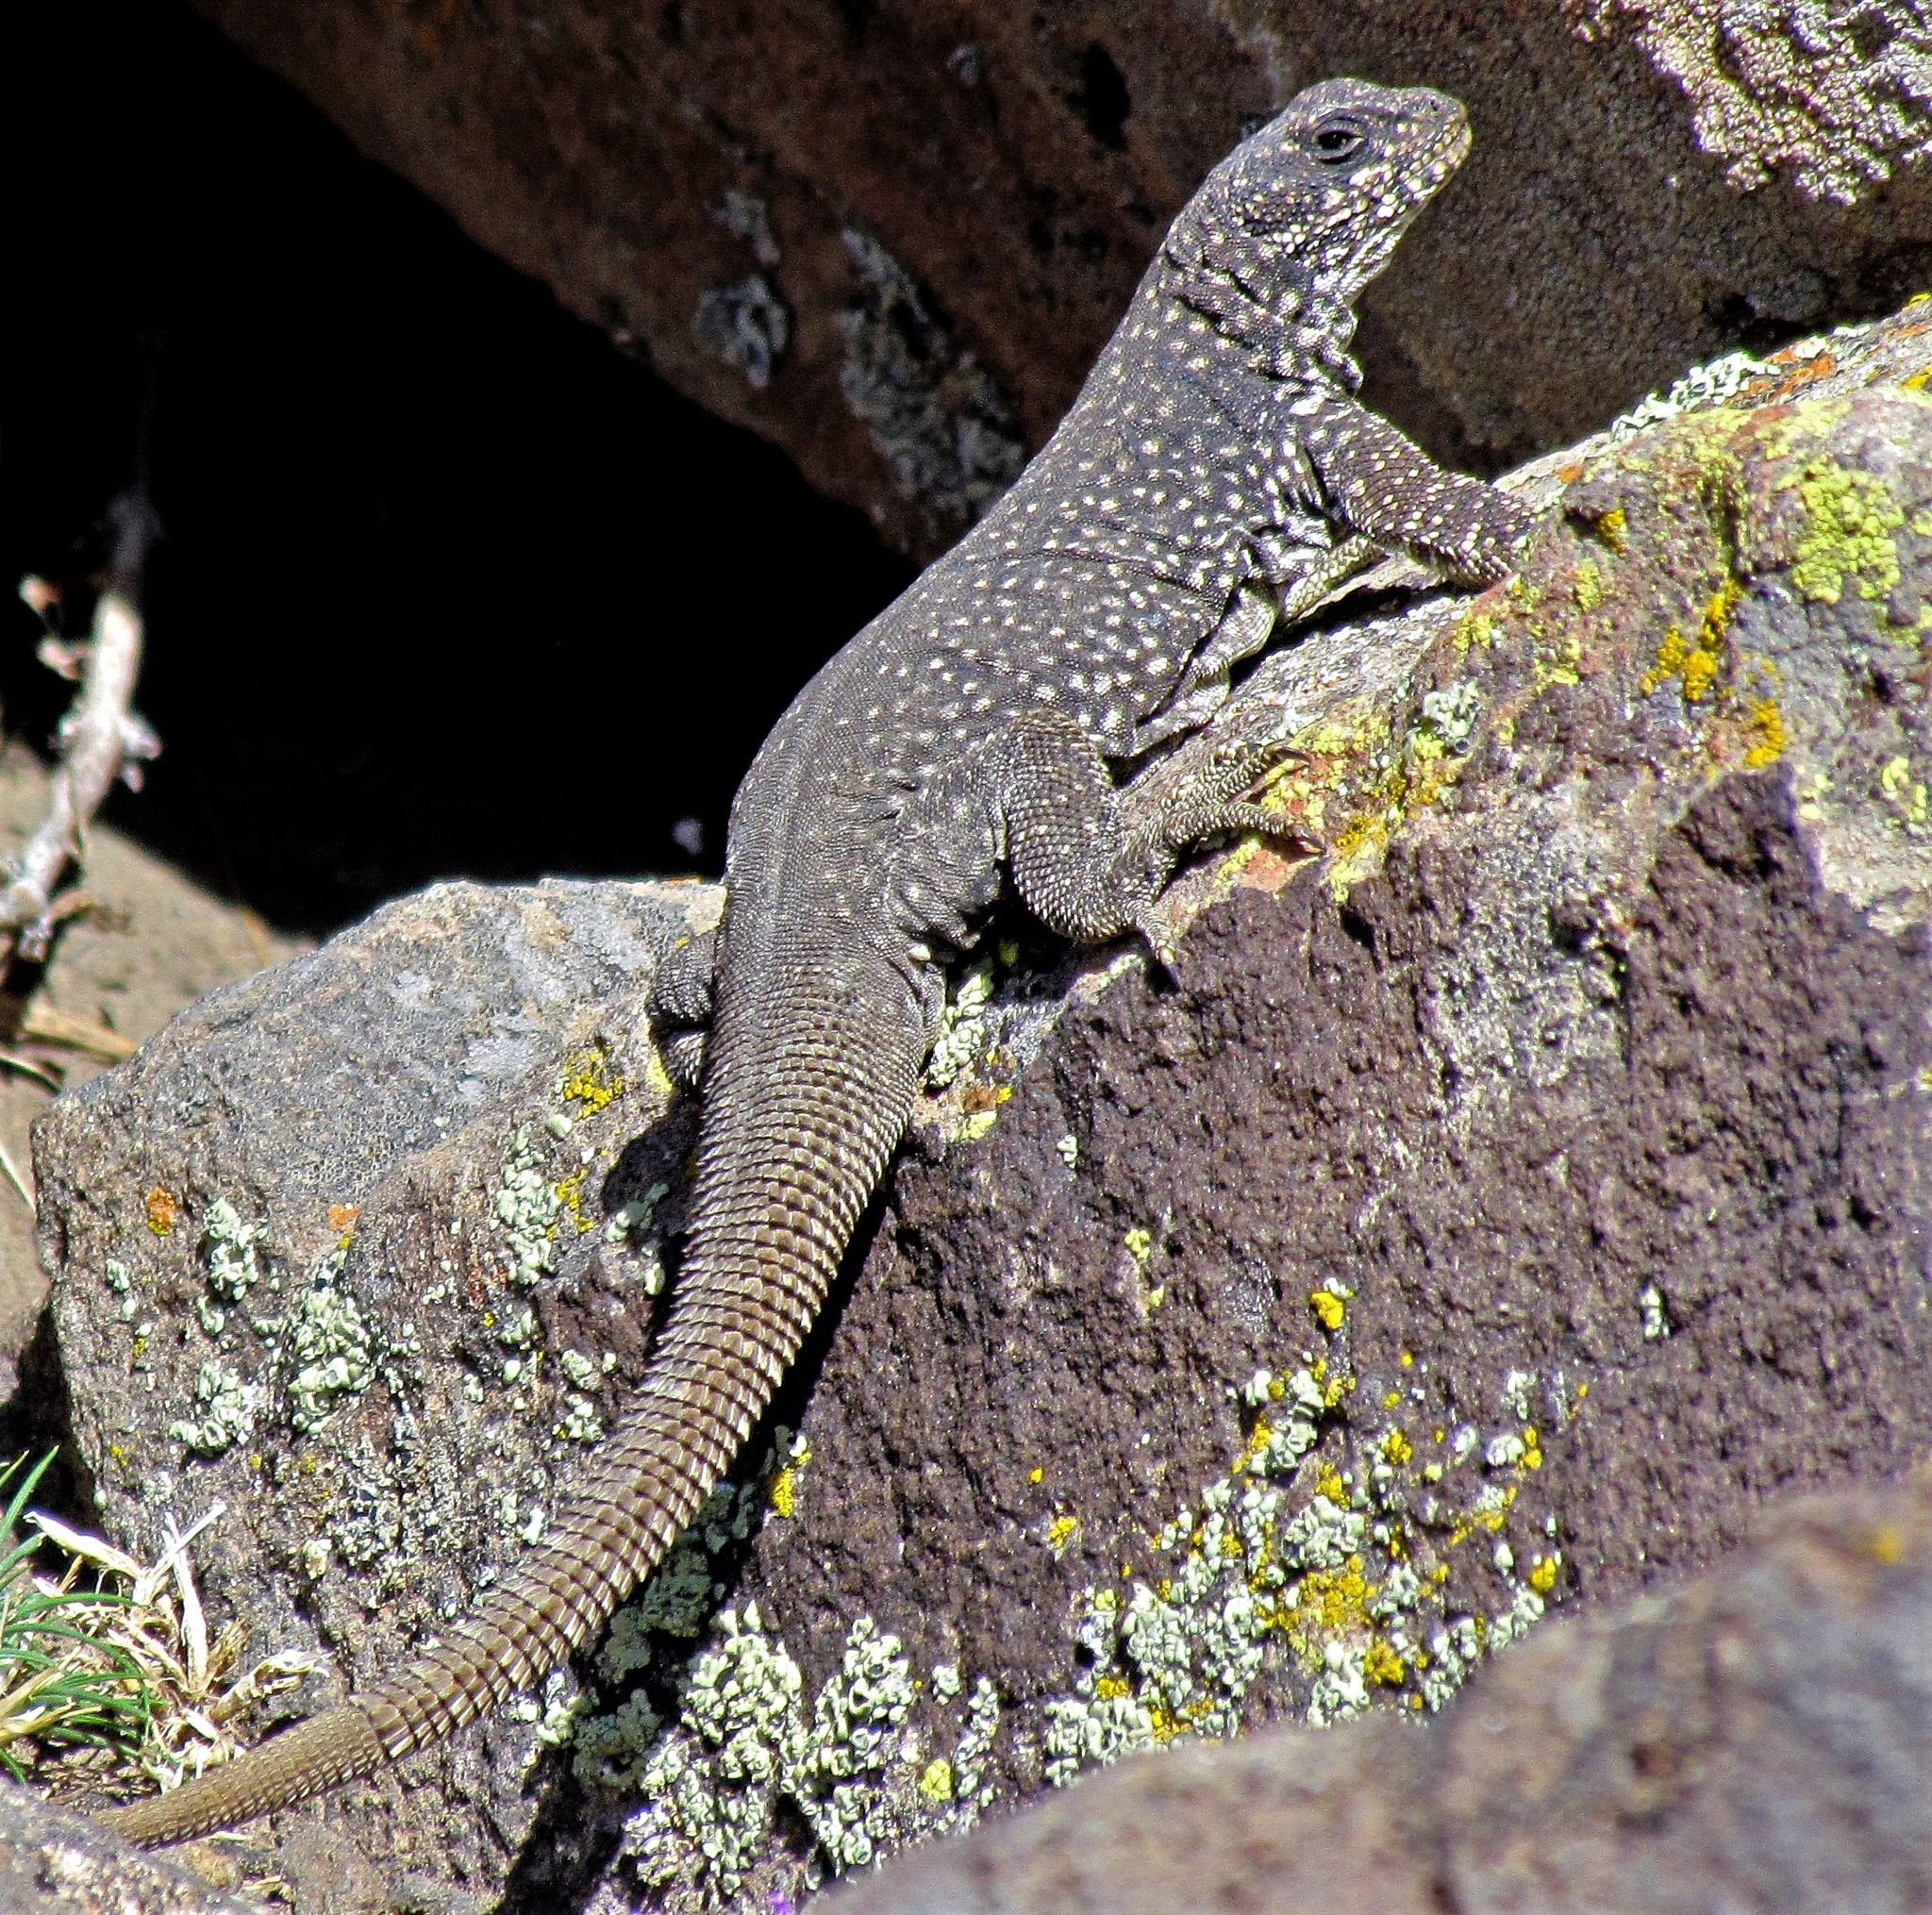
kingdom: Animalia
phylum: Chordata
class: Squamata
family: Liolaemidae
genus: Phymaturus
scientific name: Phymaturus somuncurensis
